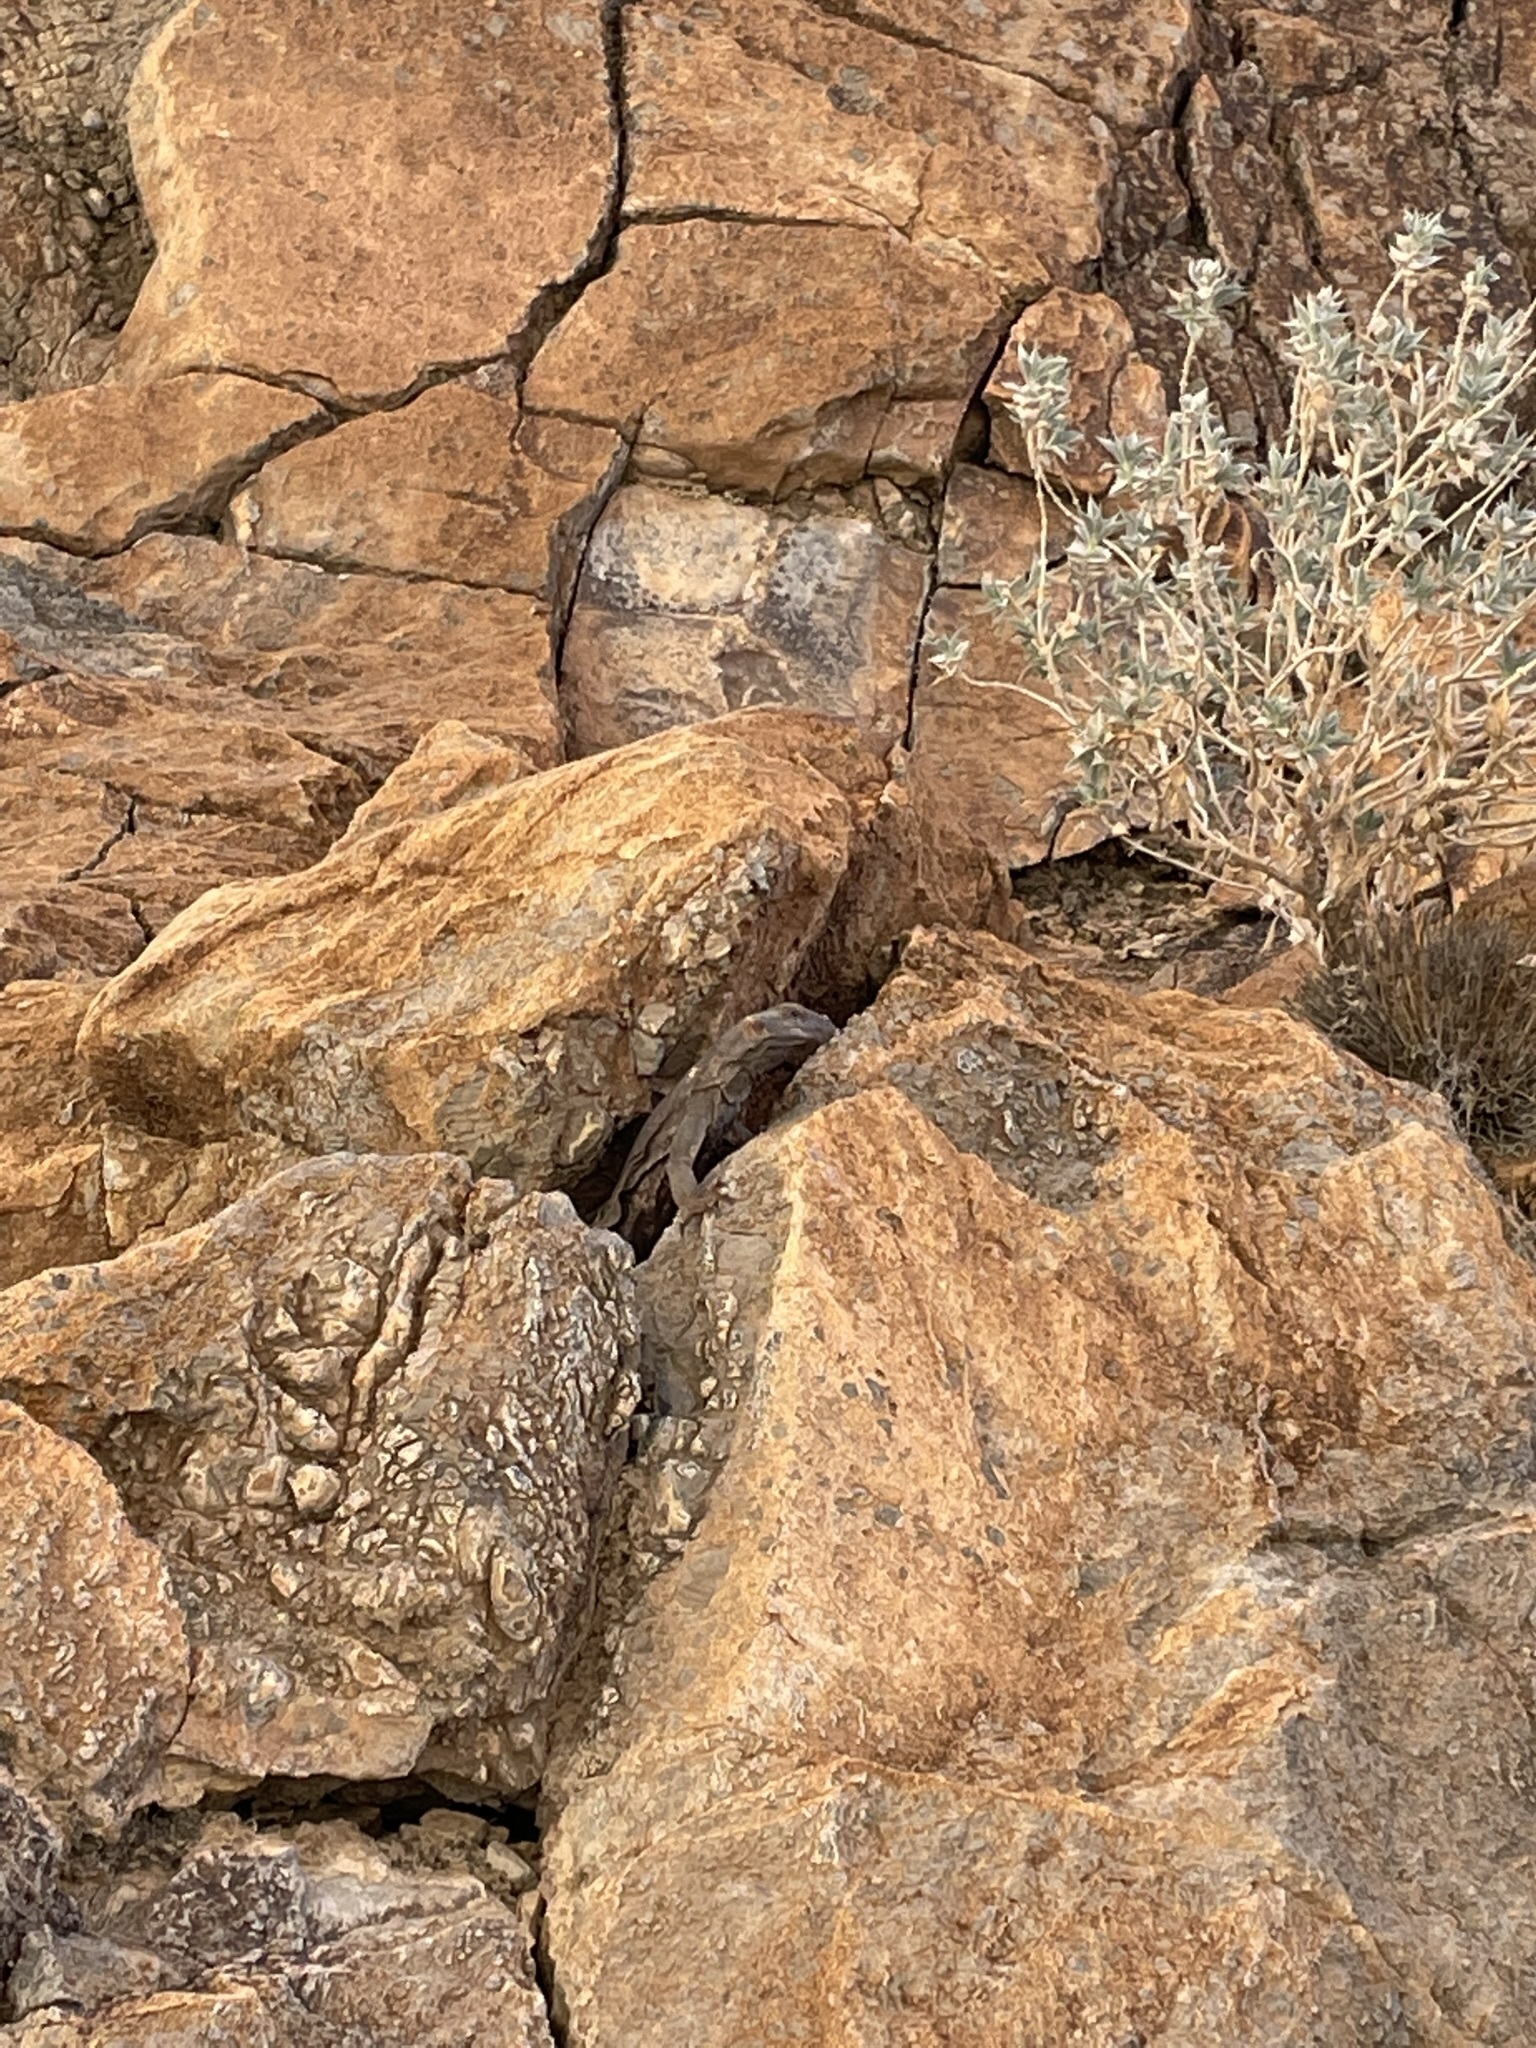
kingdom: Animalia
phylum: Chordata
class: Squamata
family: Iguanidae
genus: Sauromalus
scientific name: Sauromalus ater
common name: Northern chuckwalla
